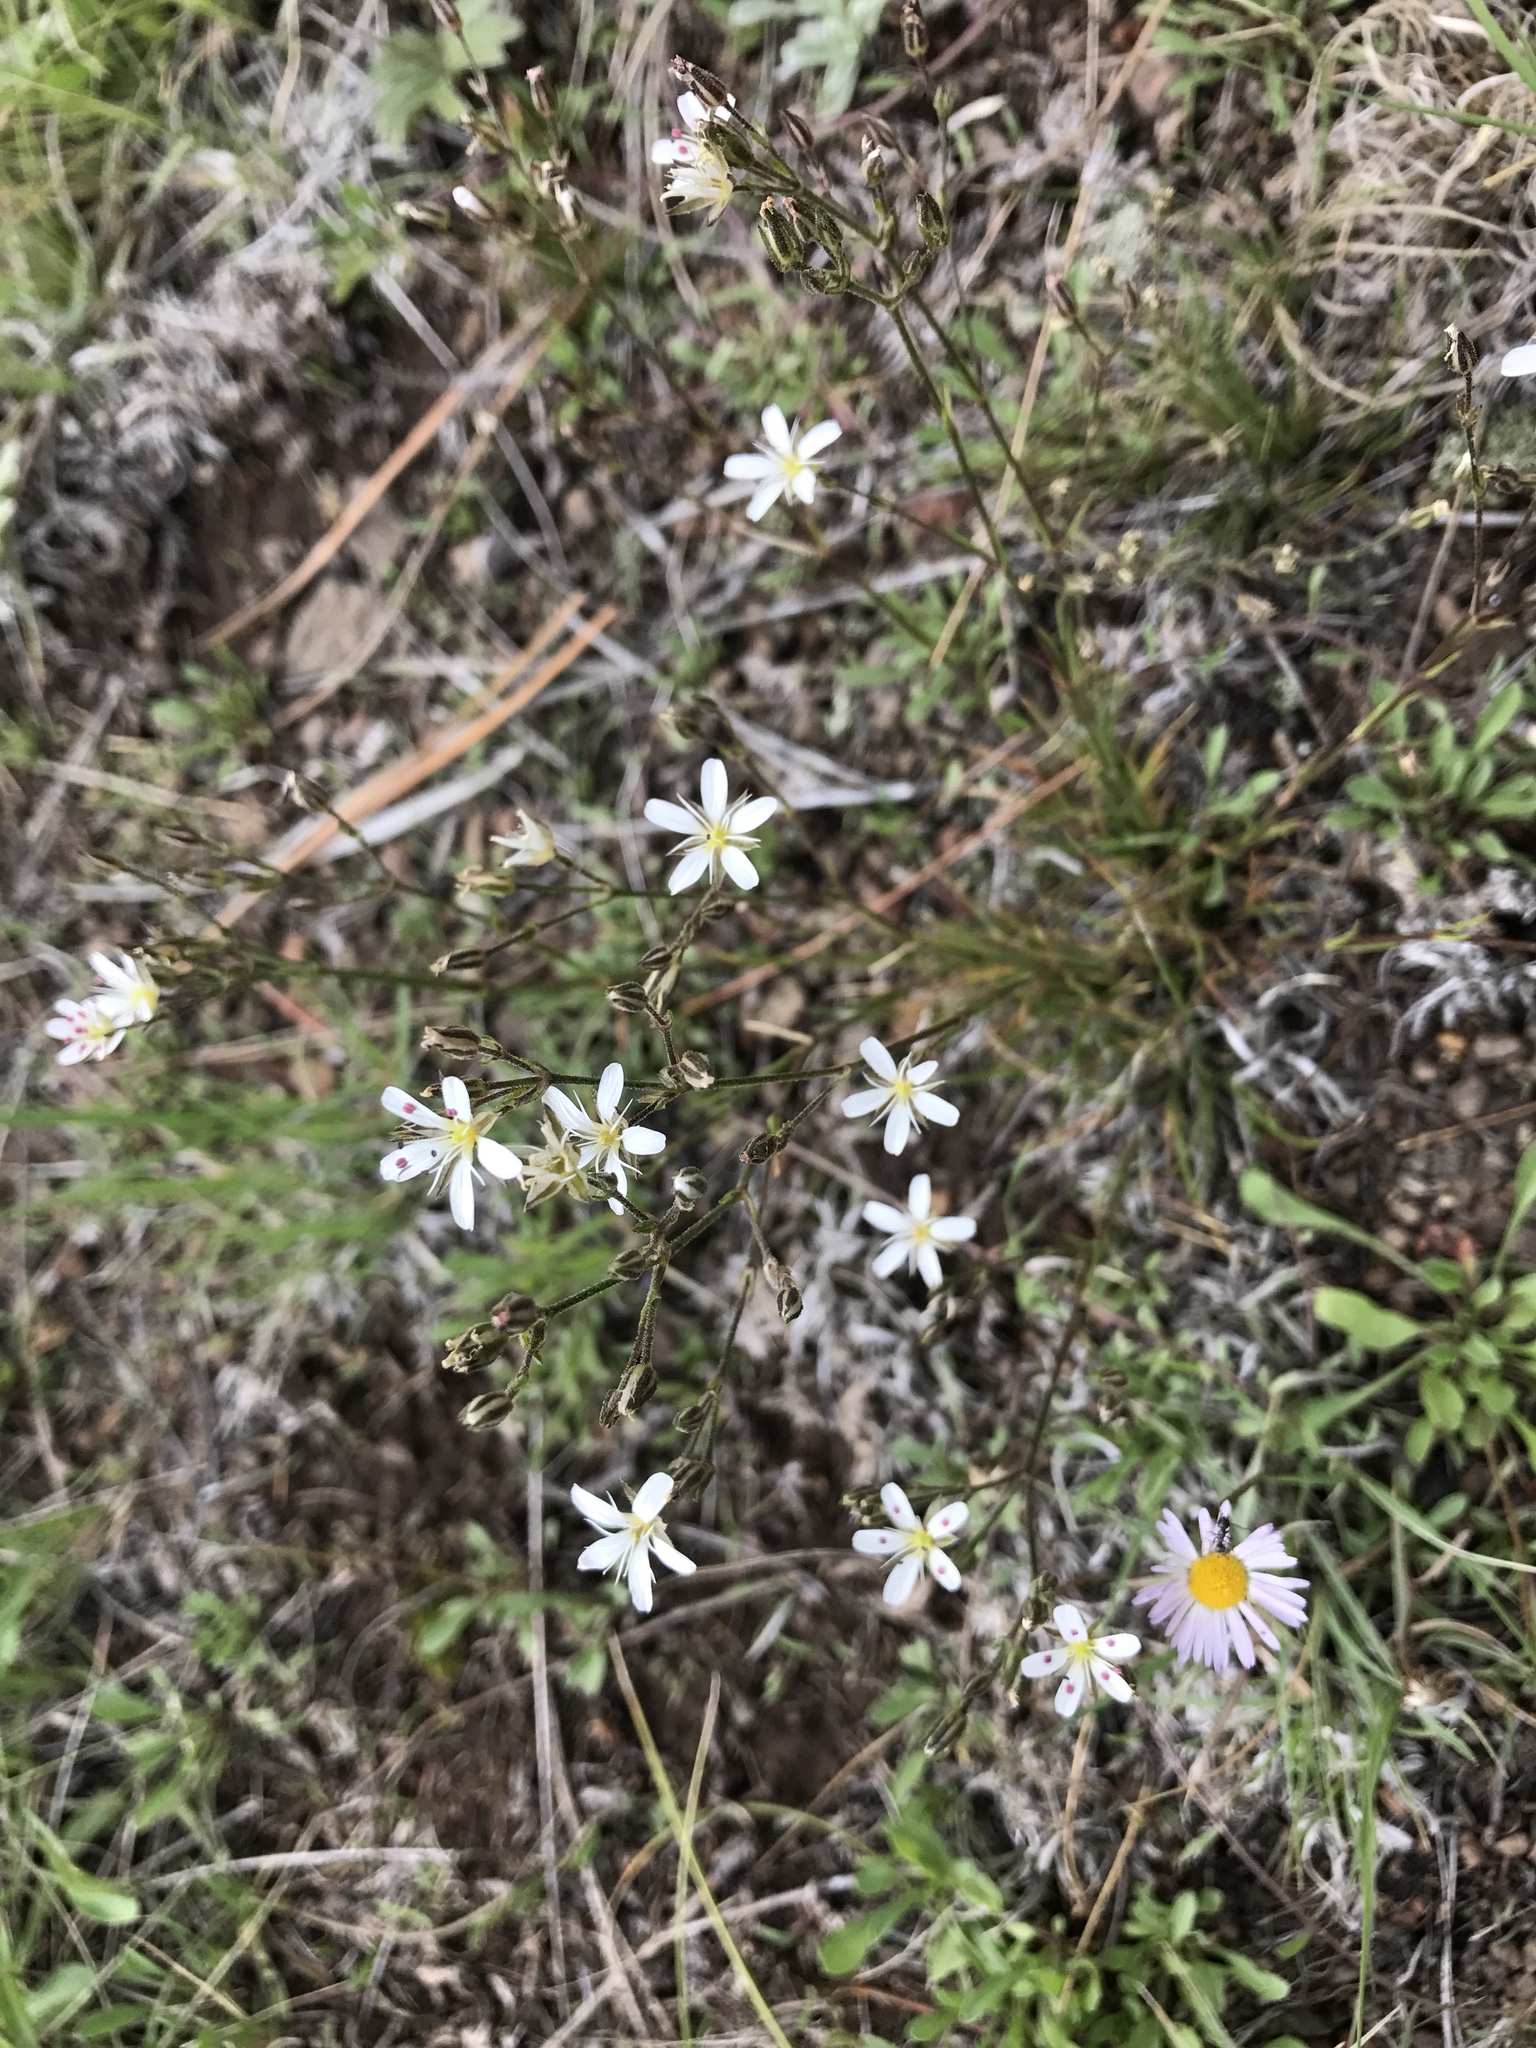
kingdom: Plantae
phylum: Tracheophyta
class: Magnoliopsida
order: Caryophyllales
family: Caryophyllaceae
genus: Eremogone
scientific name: Eremogone fendleri
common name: Fendler's sandwort
